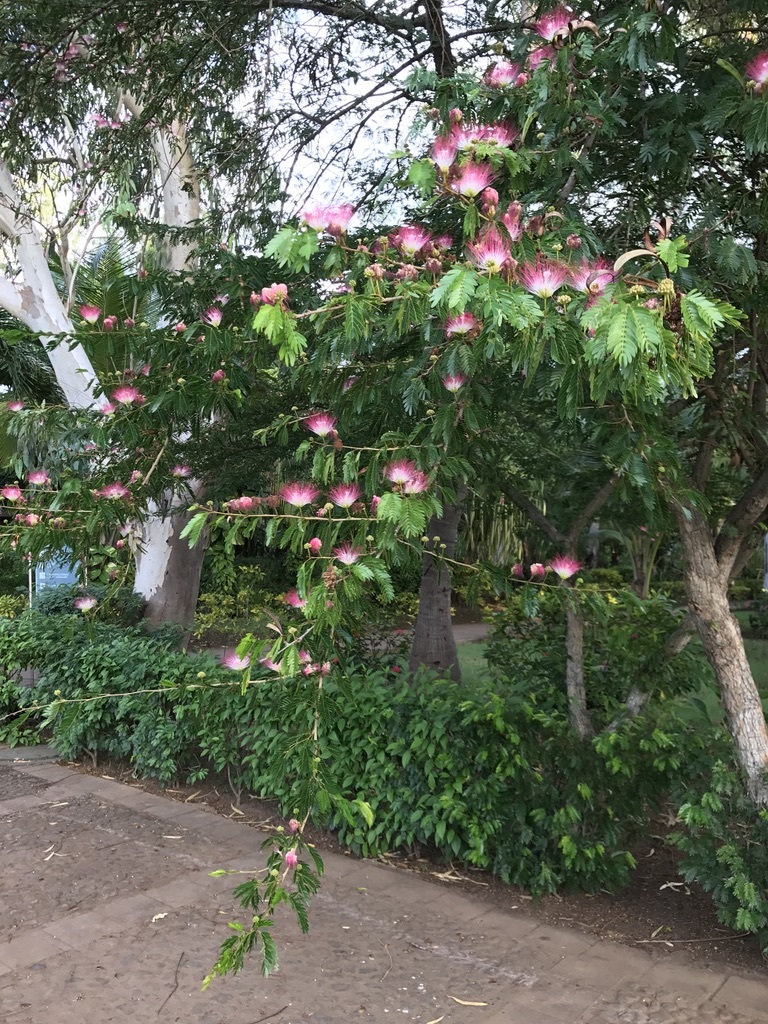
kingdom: Plantae
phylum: Tracheophyta
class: Magnoliopsida
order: Fabales
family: Fabaceae
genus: Calliandra
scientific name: Calliandra surinamensis
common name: Pink powder puff
